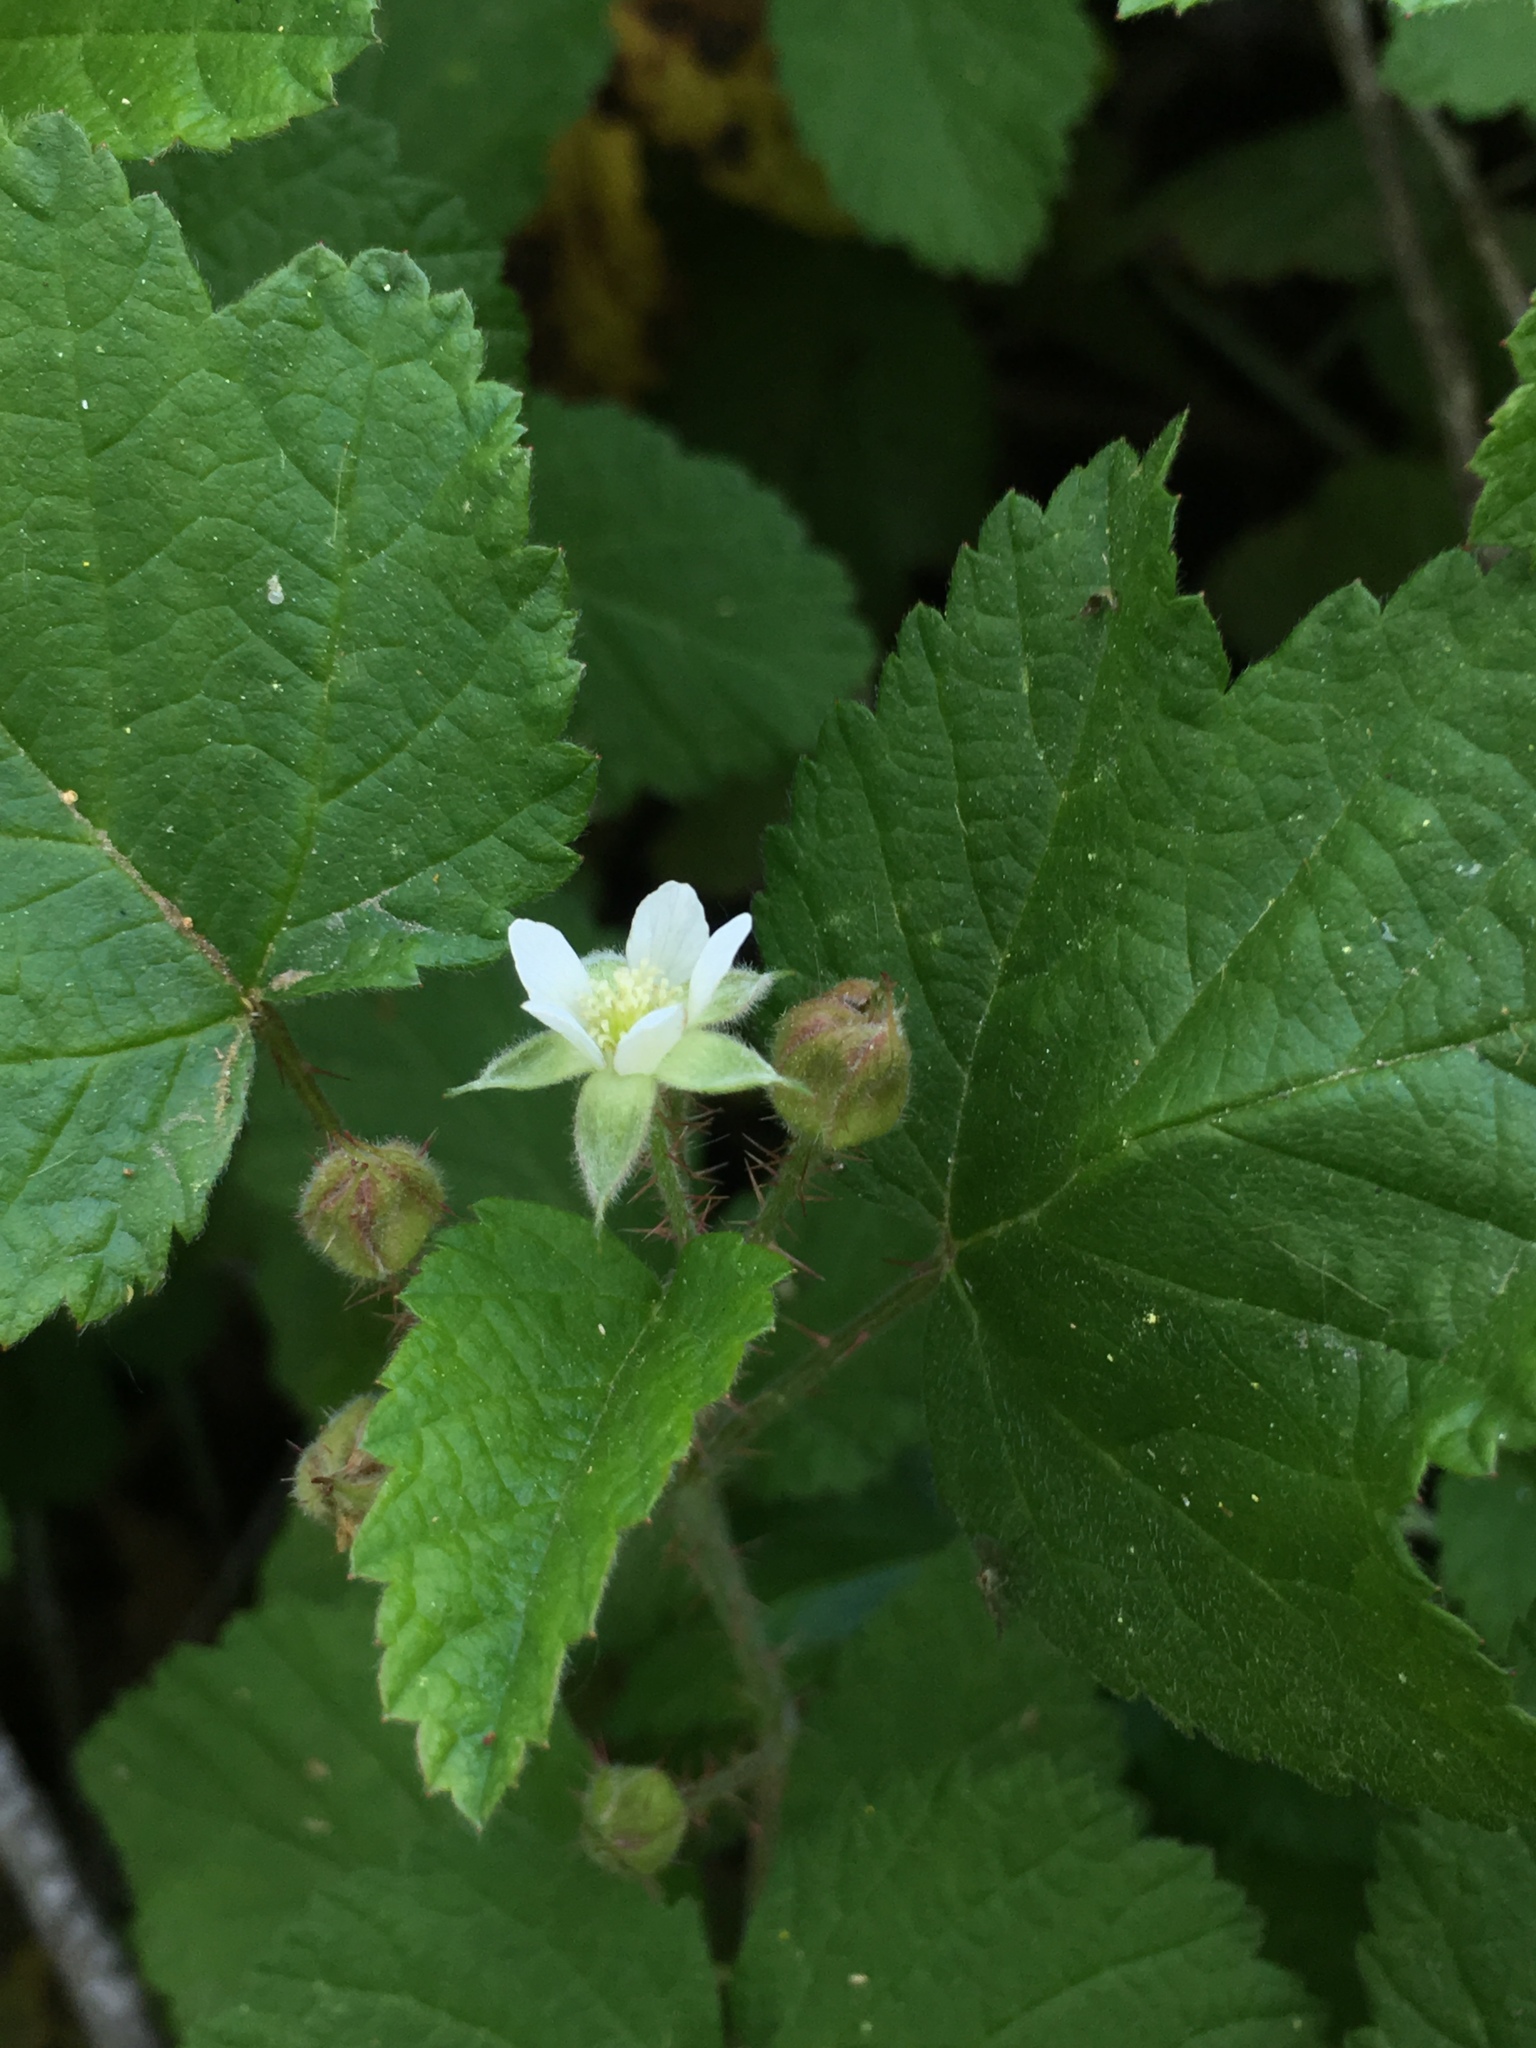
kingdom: Plantae
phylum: Tracheophyta
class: Magnoliopsida
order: Rosales
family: Rosaceae
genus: Rubus
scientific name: Rubus ursinus
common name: Pacific blackberry
